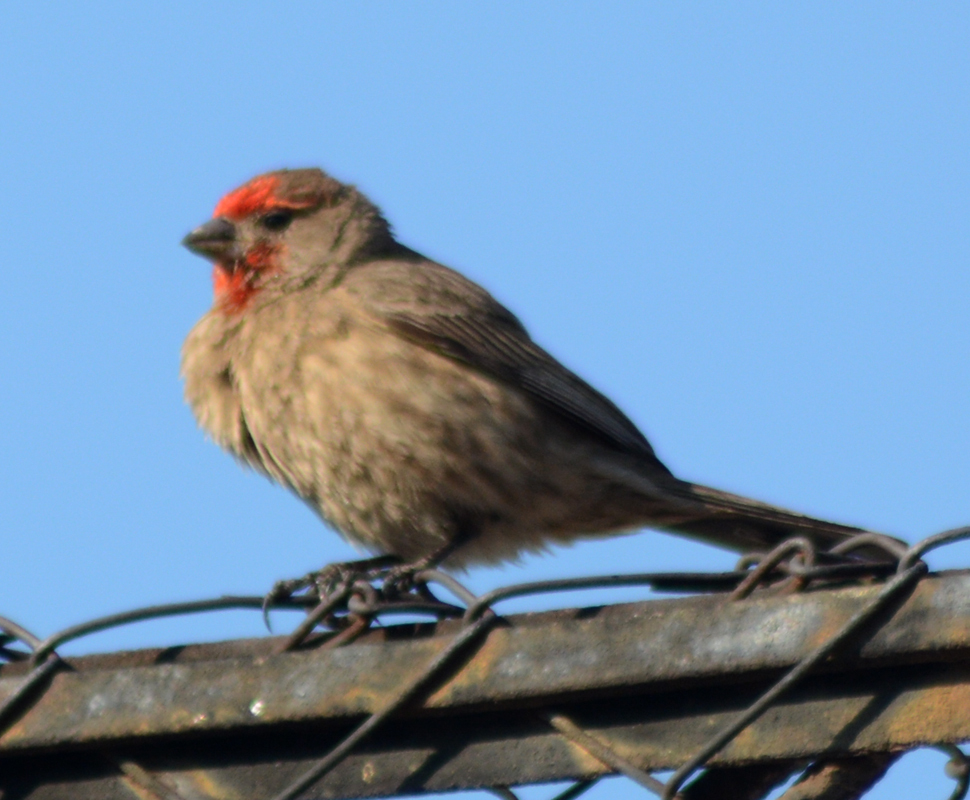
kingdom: Animalia
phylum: Chordata
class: Aves
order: Passeriformes
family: Fringillidae
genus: Haemorhous
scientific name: Haemorhous mexicanus
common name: House finch
